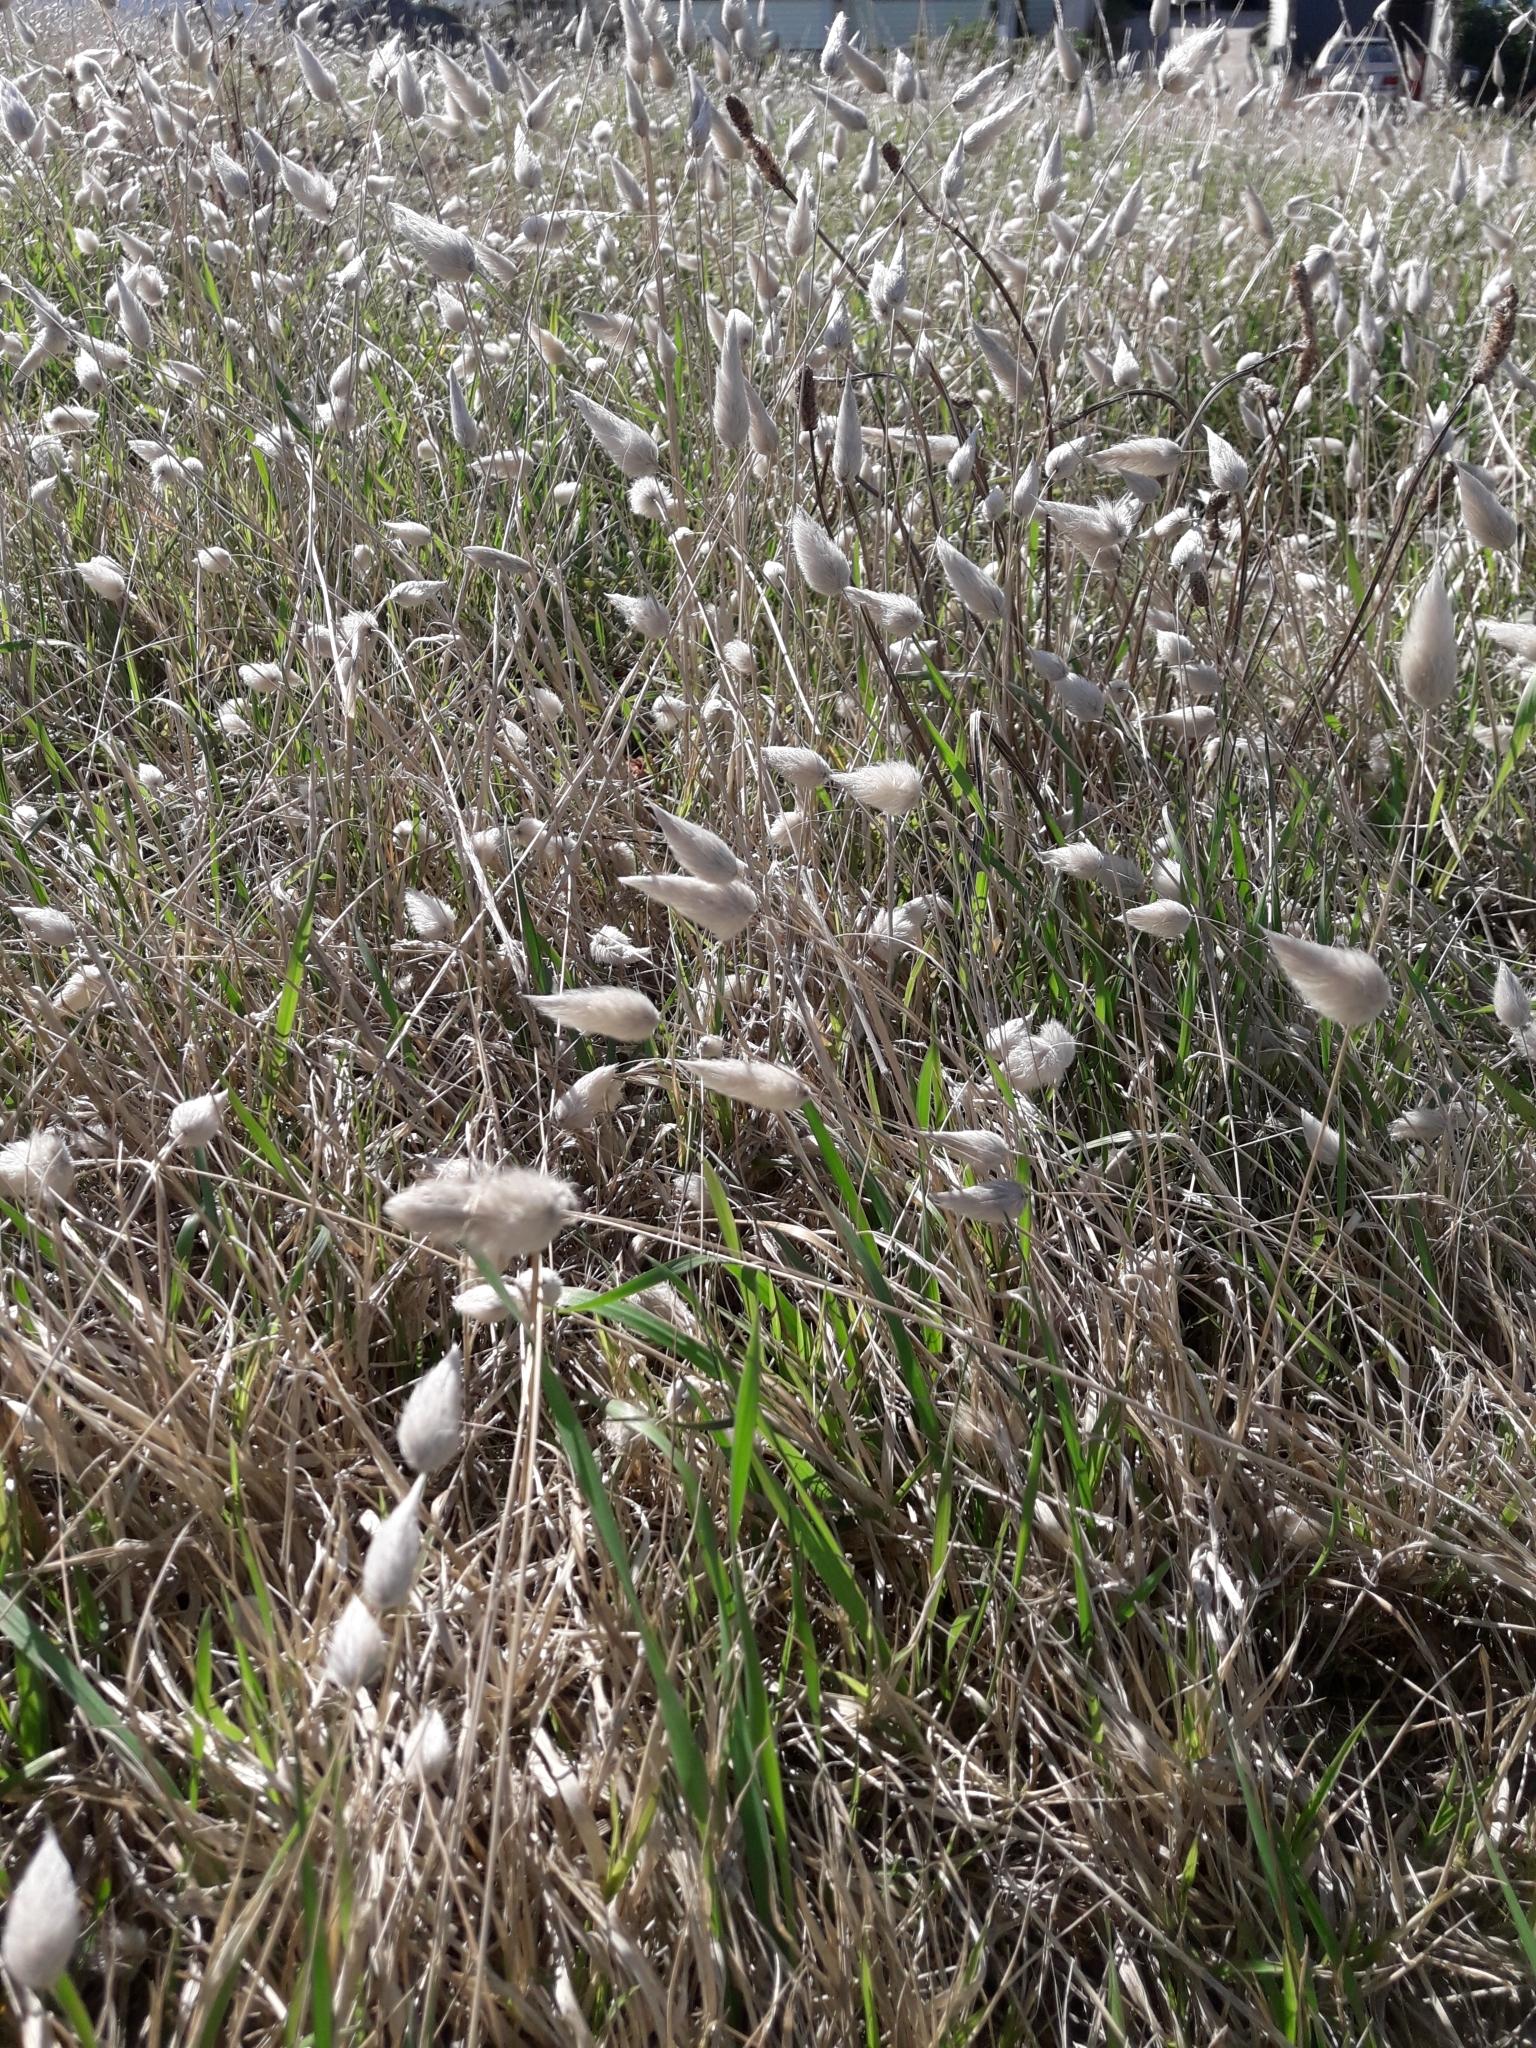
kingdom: Plantae
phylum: Tracheophyta
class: Liliopsida
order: Poales
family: Poaceae
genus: Lagurus
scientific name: Lagurus ovatus
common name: Hare's-tail
